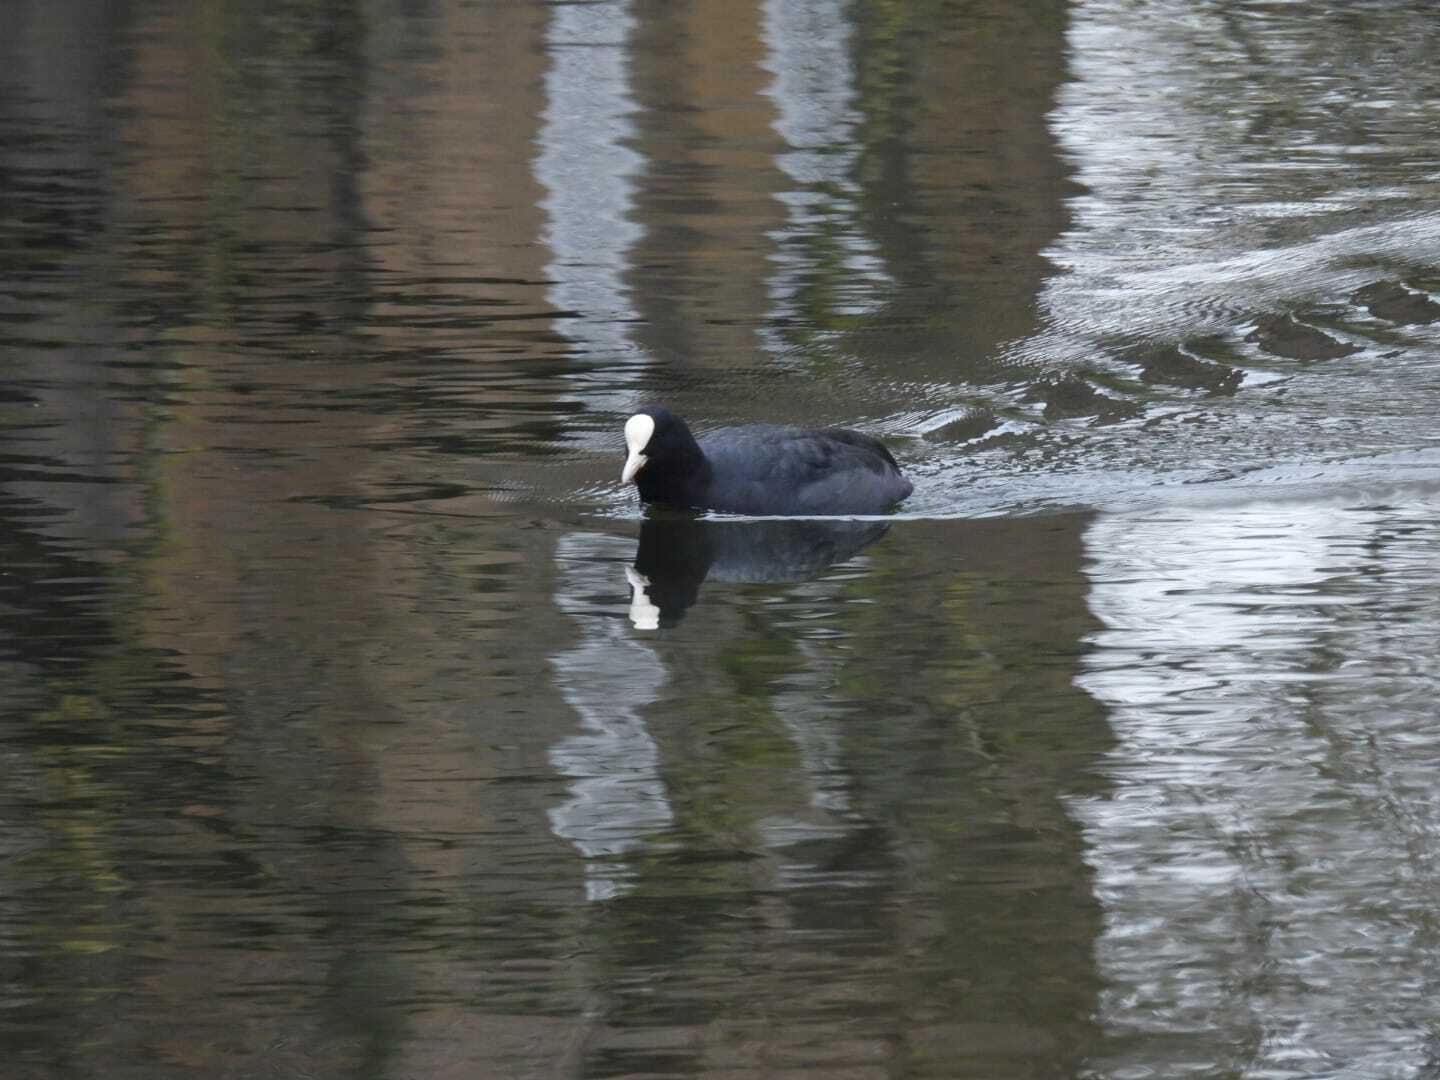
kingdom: Animalia
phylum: Chordata
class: Aves
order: Gruiformes
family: Rallidae
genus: Fulica
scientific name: Fulica atra
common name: Eurasian coot
